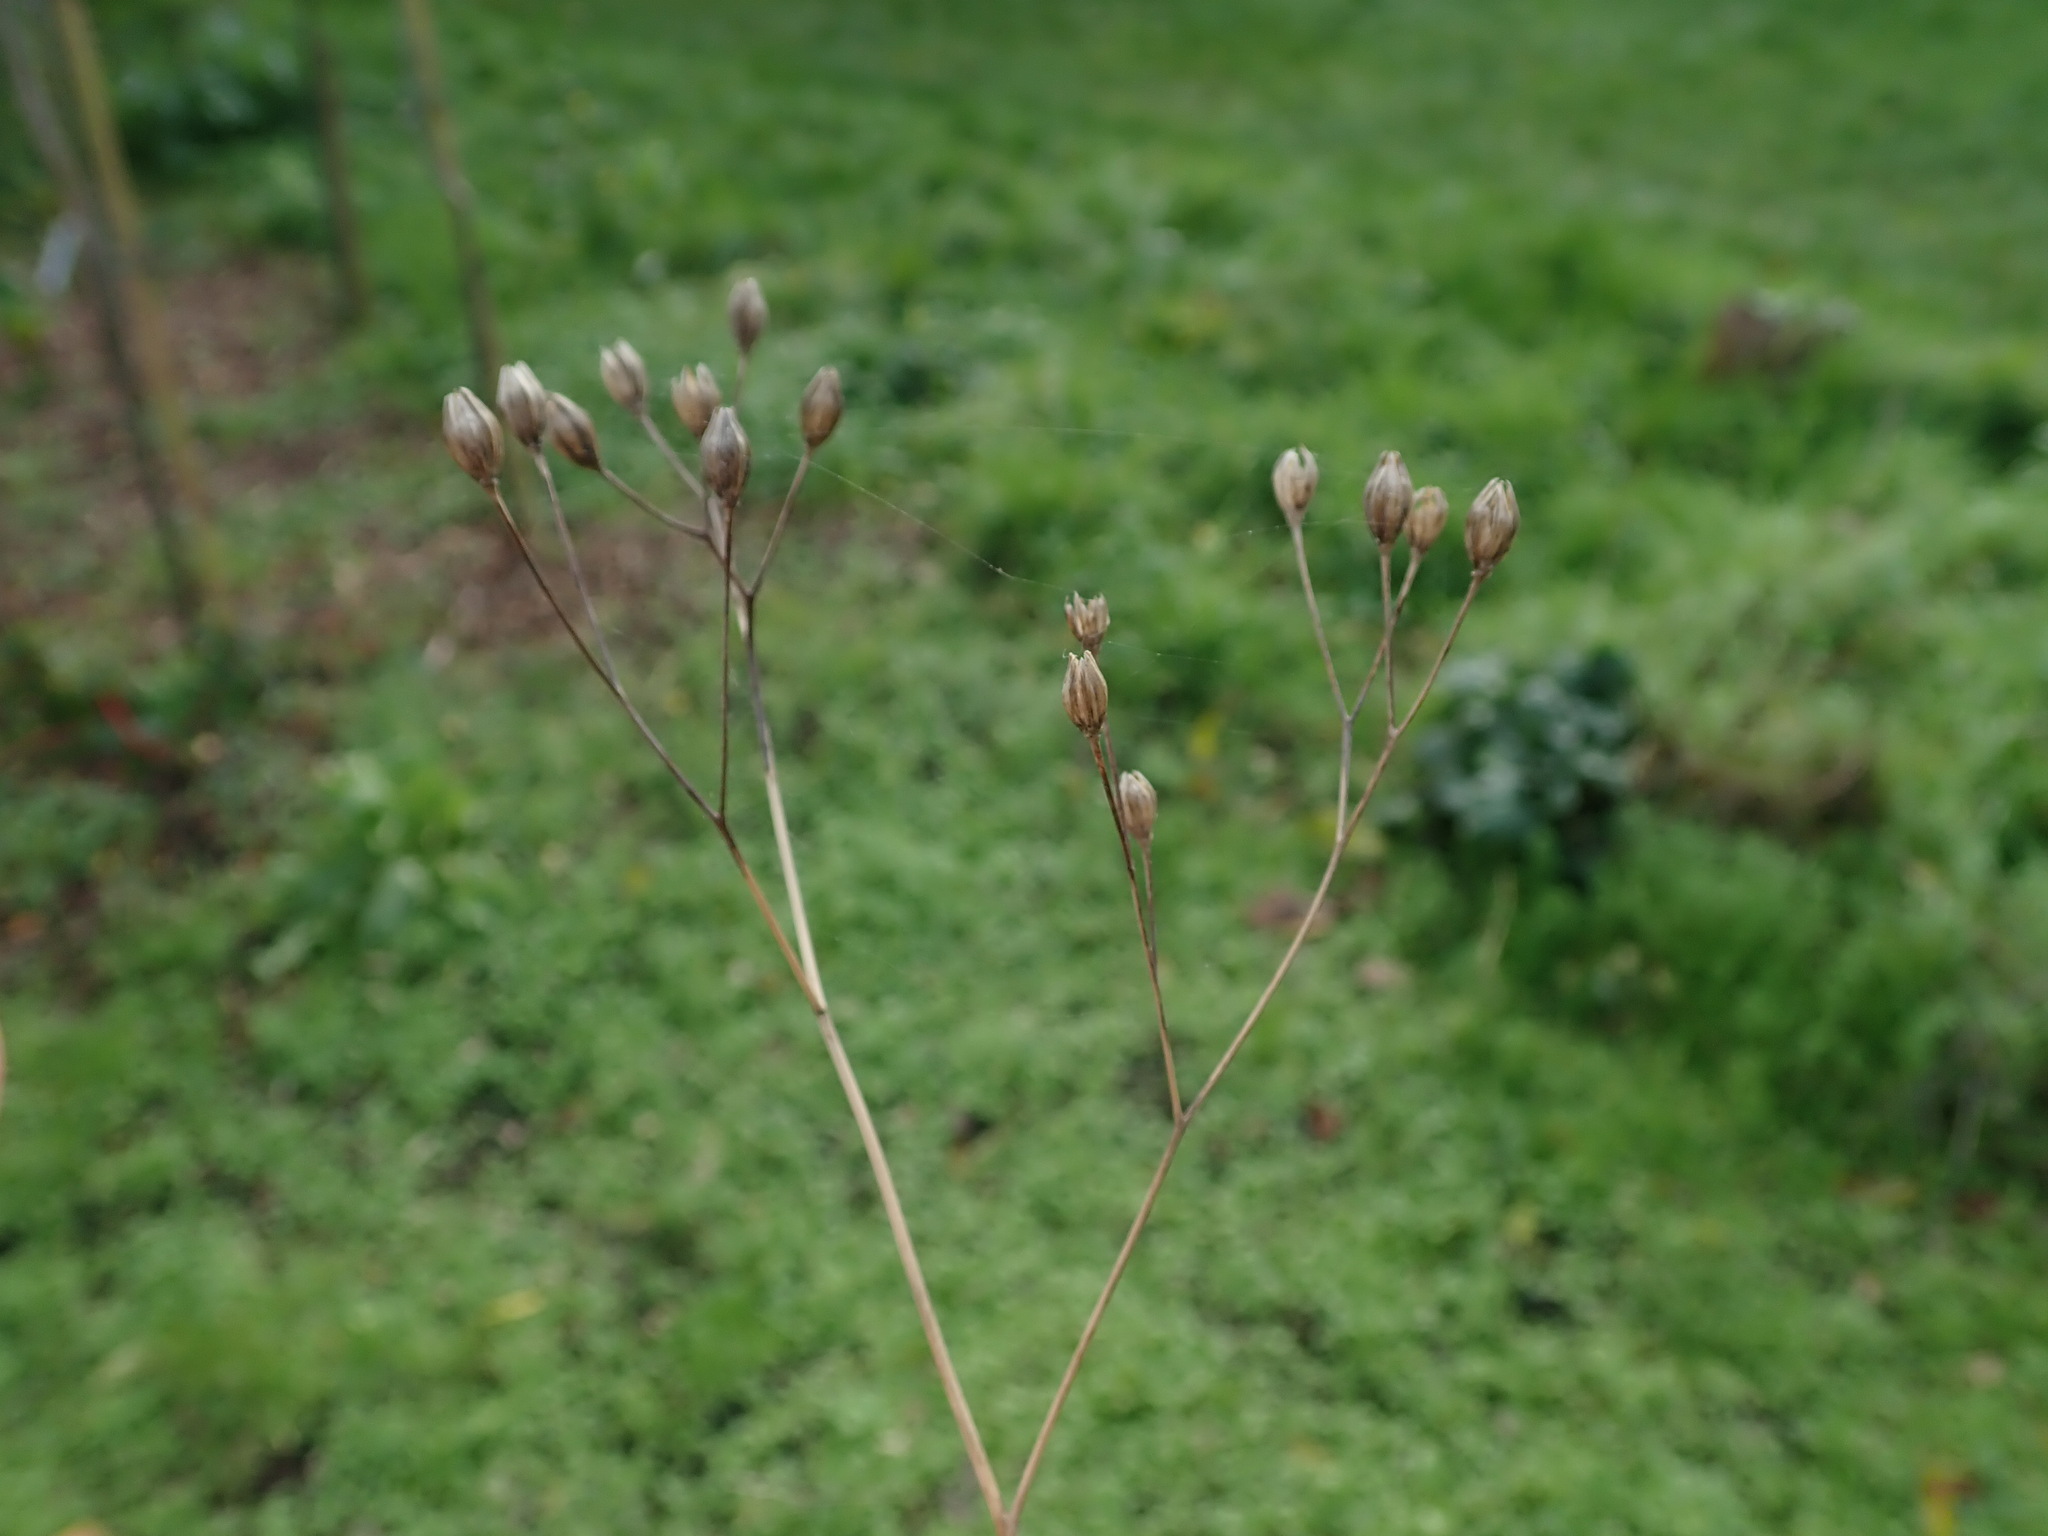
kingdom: Plantae
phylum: Tracheophyta
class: Magnoliopsida
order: Asterales
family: Asteraceae
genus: Lapsana
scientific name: Lapsana communis
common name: Nipplewort
